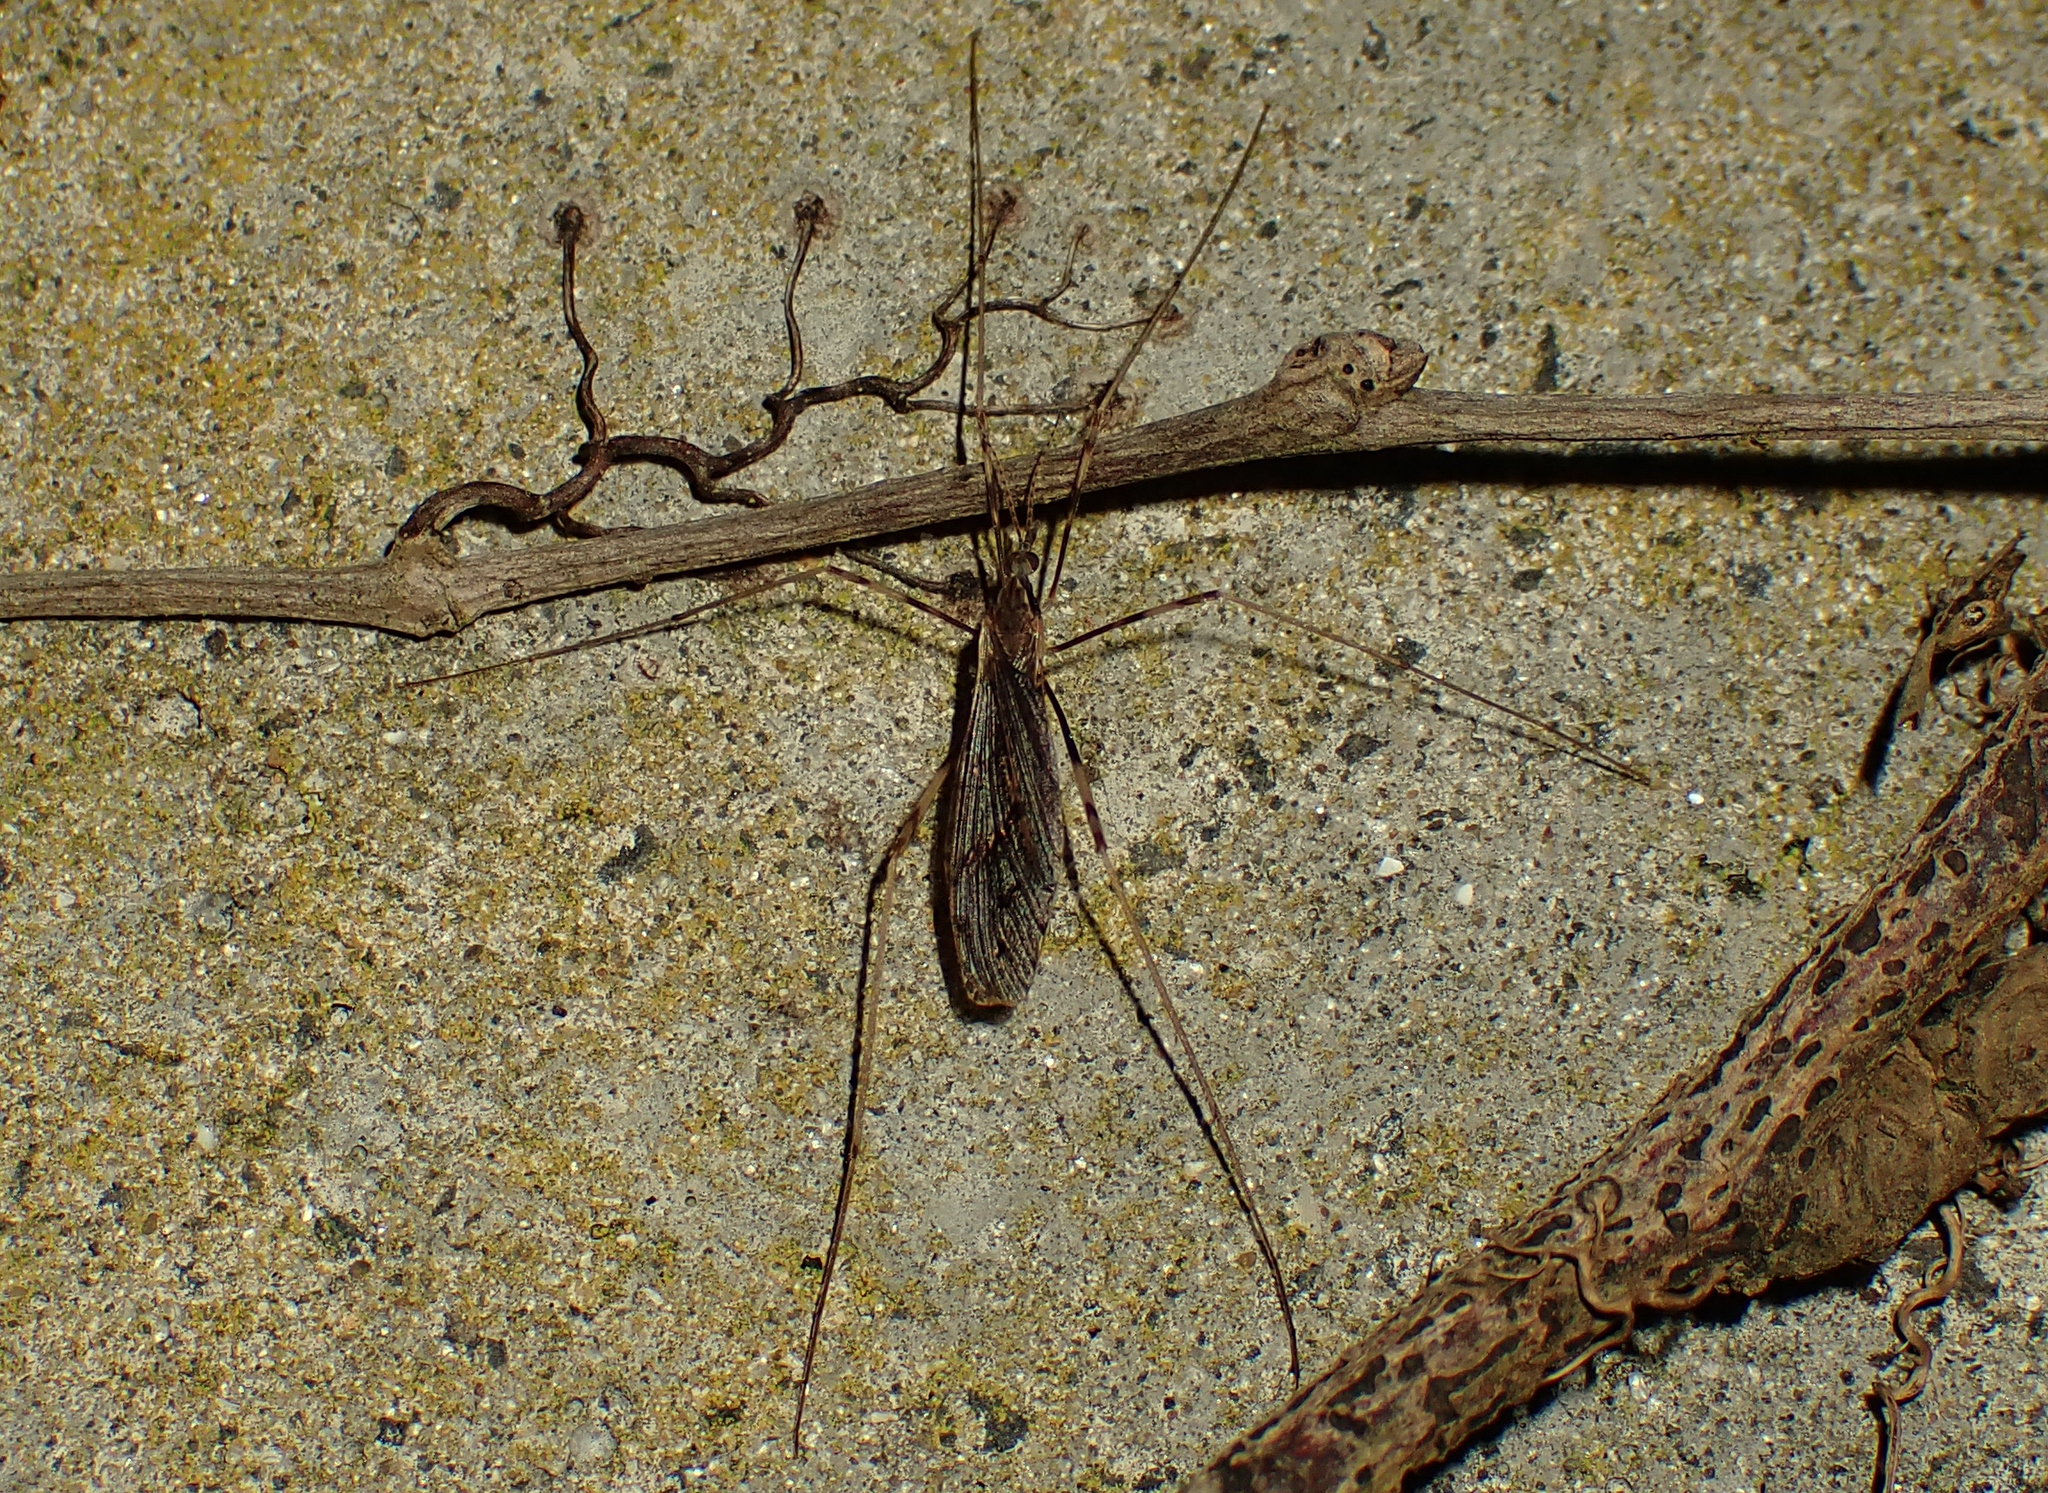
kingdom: Animalia
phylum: Arthropoda
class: Insecta
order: Diptera
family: Limoniidae
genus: Rhamphophila
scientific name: Rhamphophila sinistra
